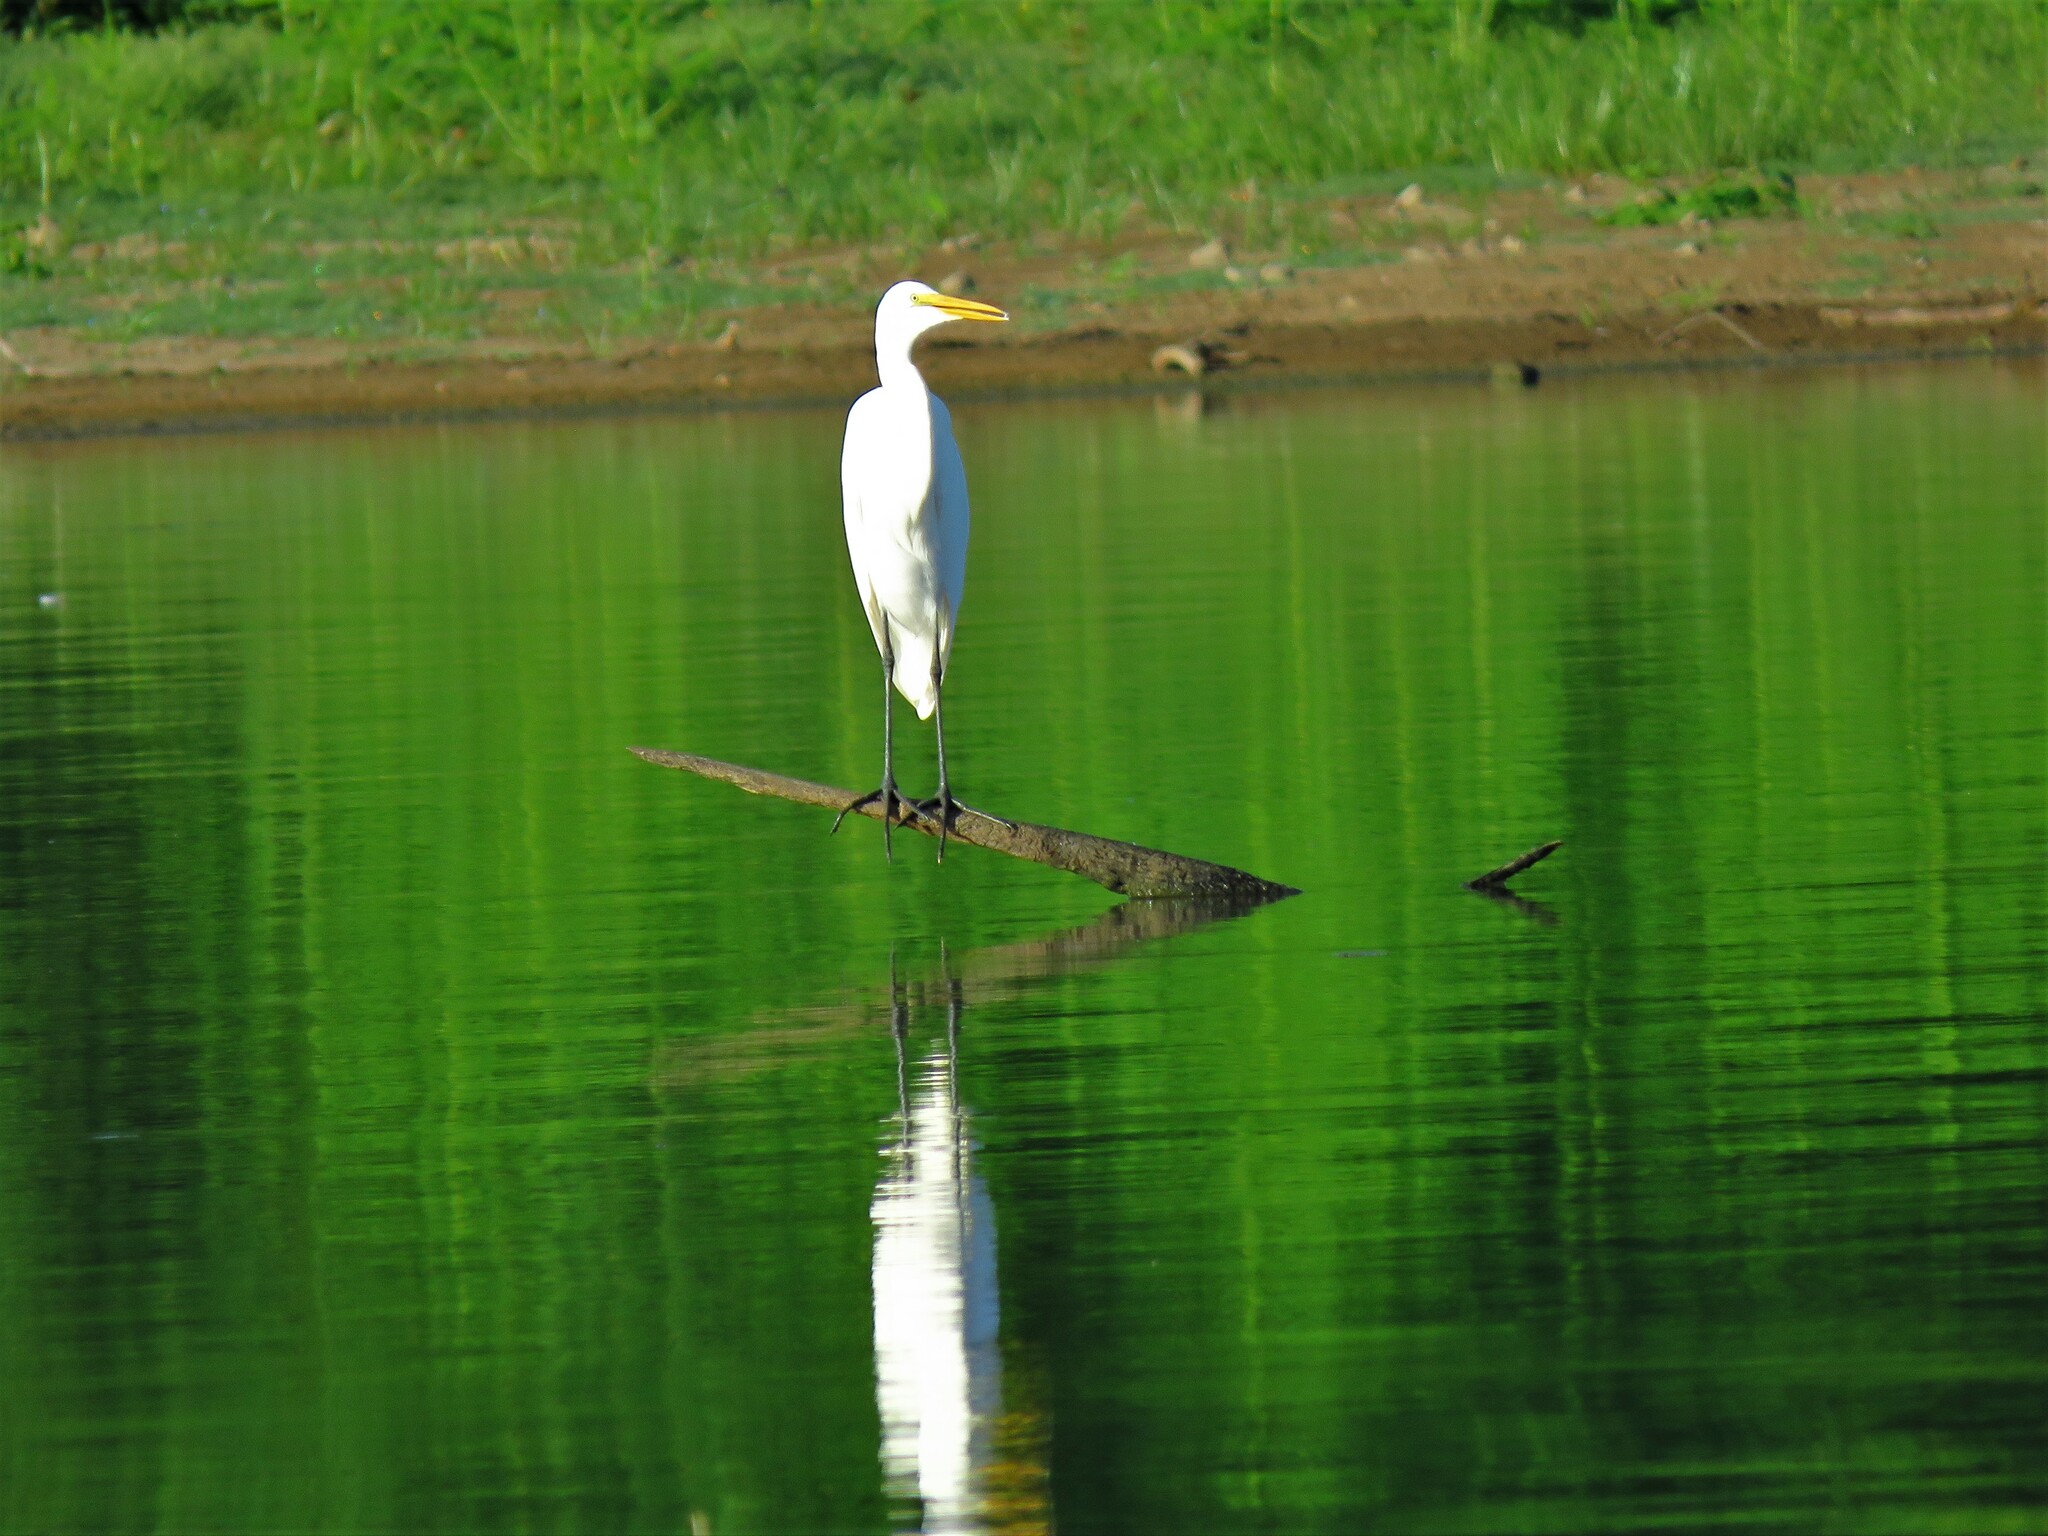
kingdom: Animalia
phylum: Chordata
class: Aves
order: Pelecaniformes
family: Ardeidae
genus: Ardea
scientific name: Ardea alba
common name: Great egret
